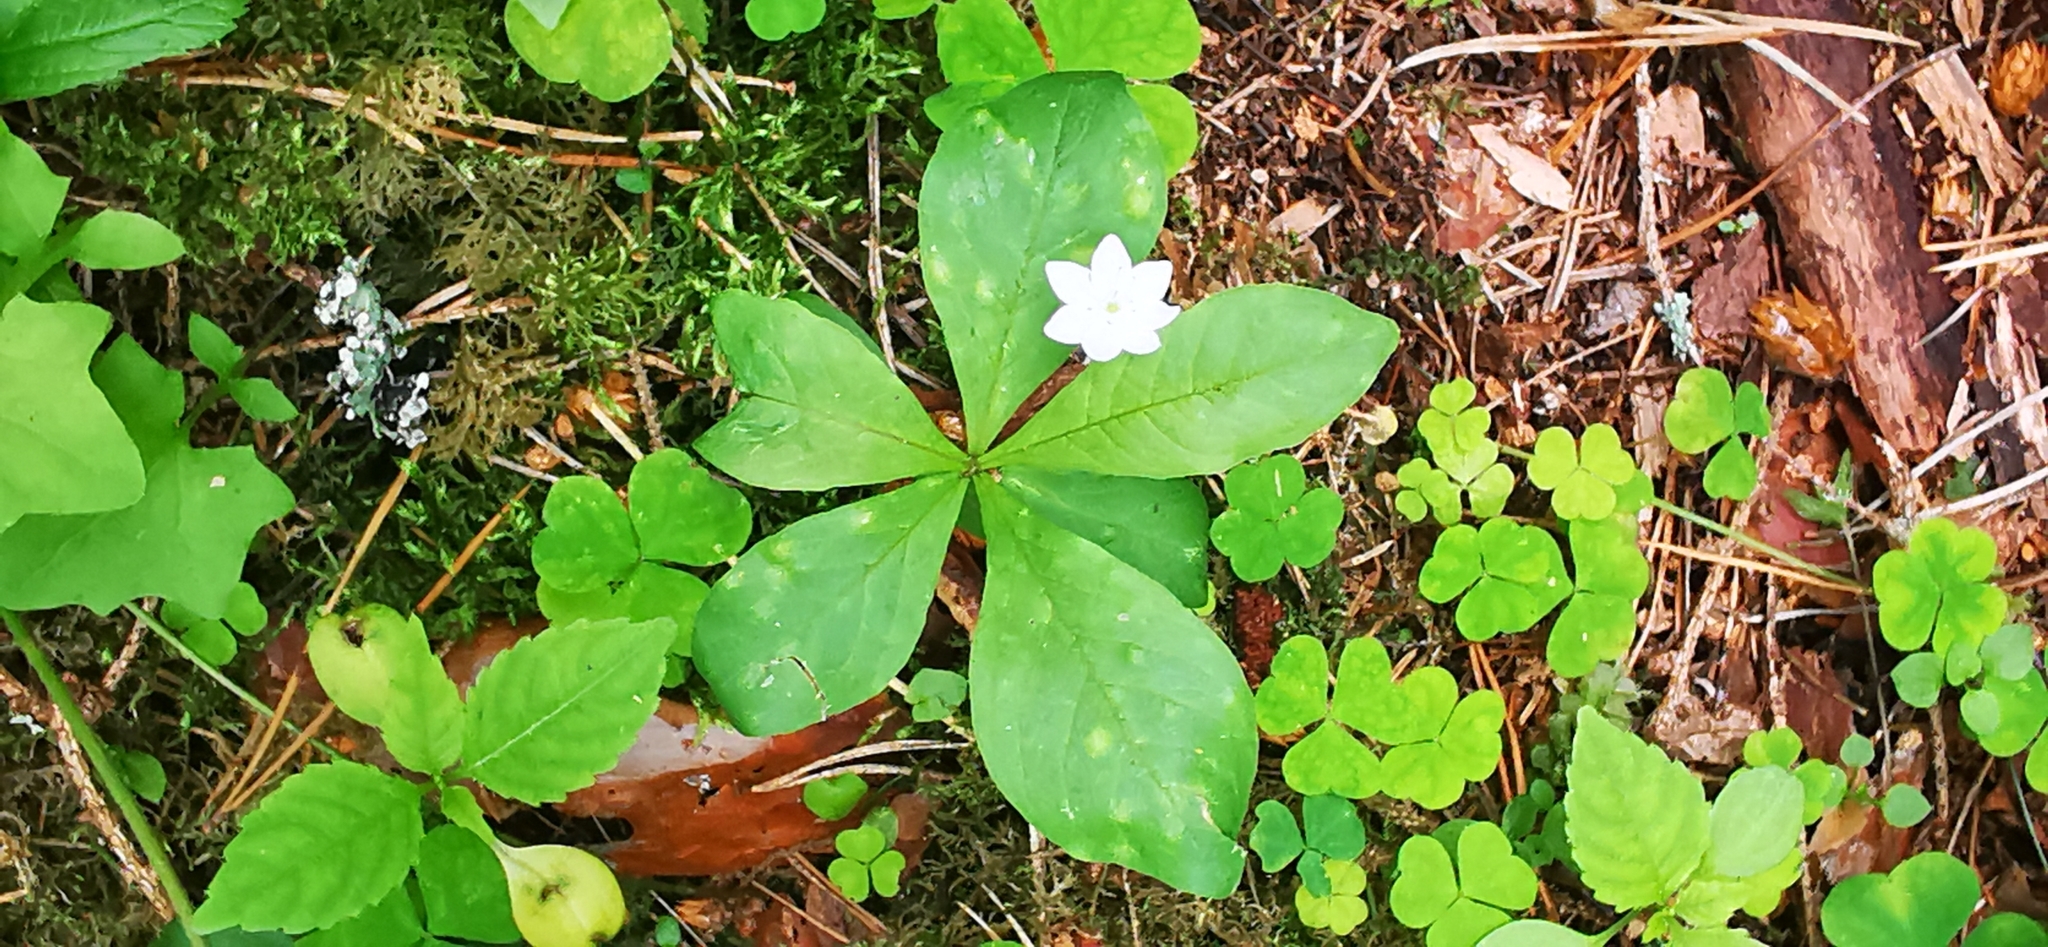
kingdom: Plantae
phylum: Tracheophyta
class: Magnoliopsida
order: Ericales
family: Primulaceae
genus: Lysimachia
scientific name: Lysimachia europaea
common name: Arctic starflower
